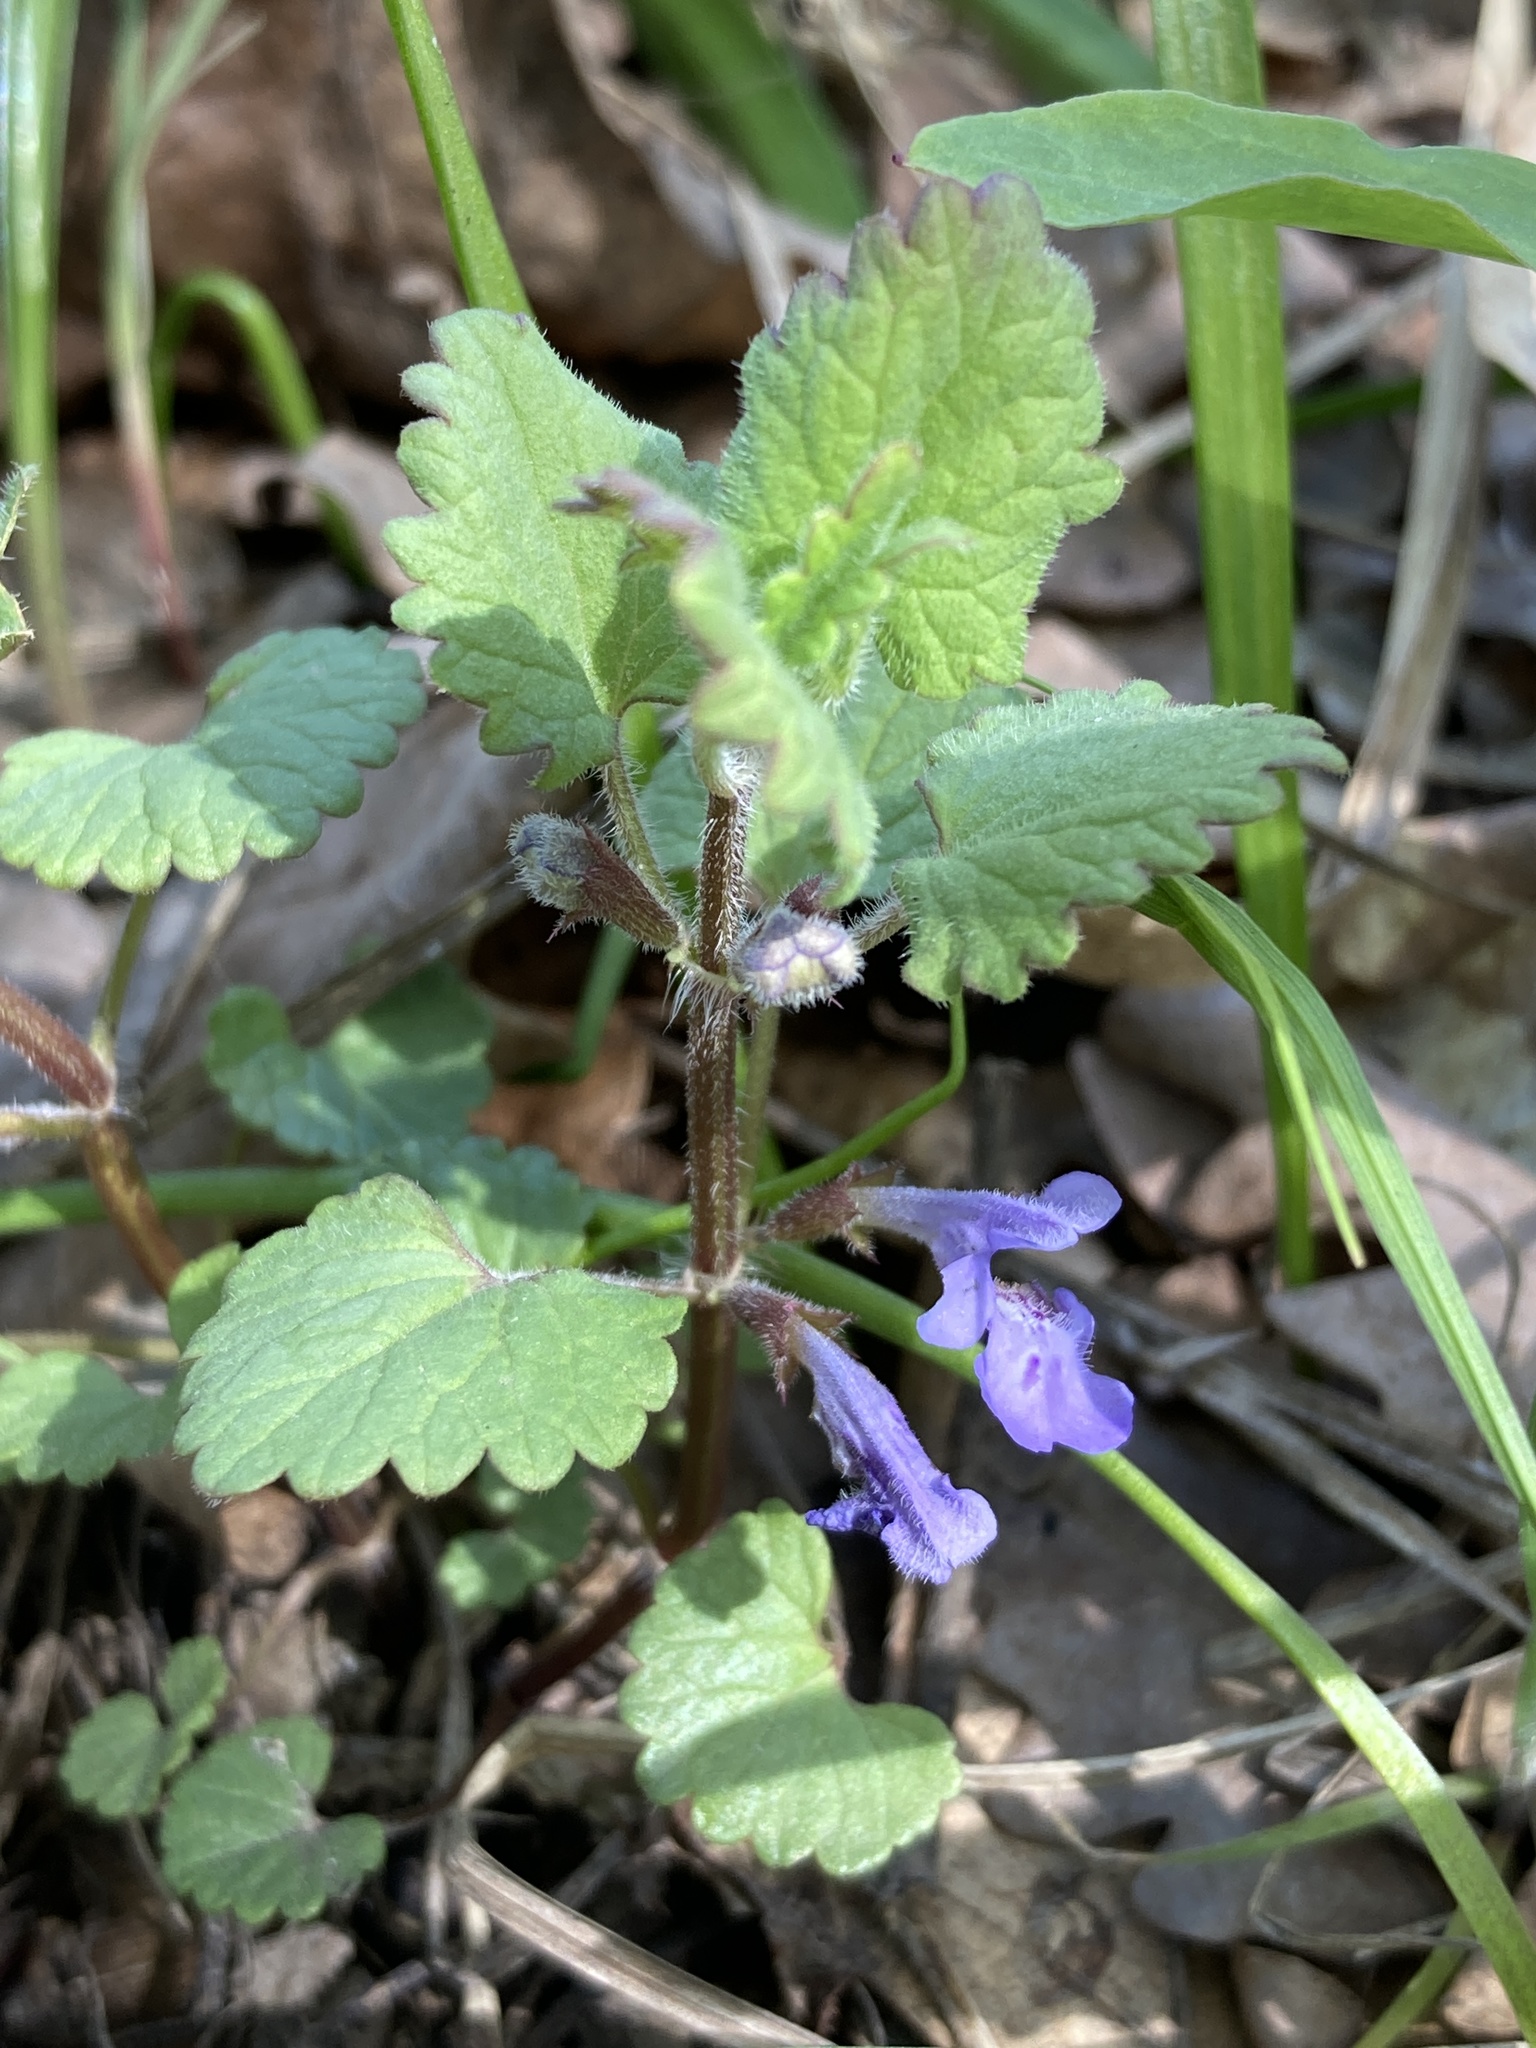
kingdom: Plantae
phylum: Tracheophyta
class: Magnoliopsida
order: Lamiales
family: Lamiaceae
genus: Glechoma
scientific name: Glechoma hederacea
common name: Ground ivy
